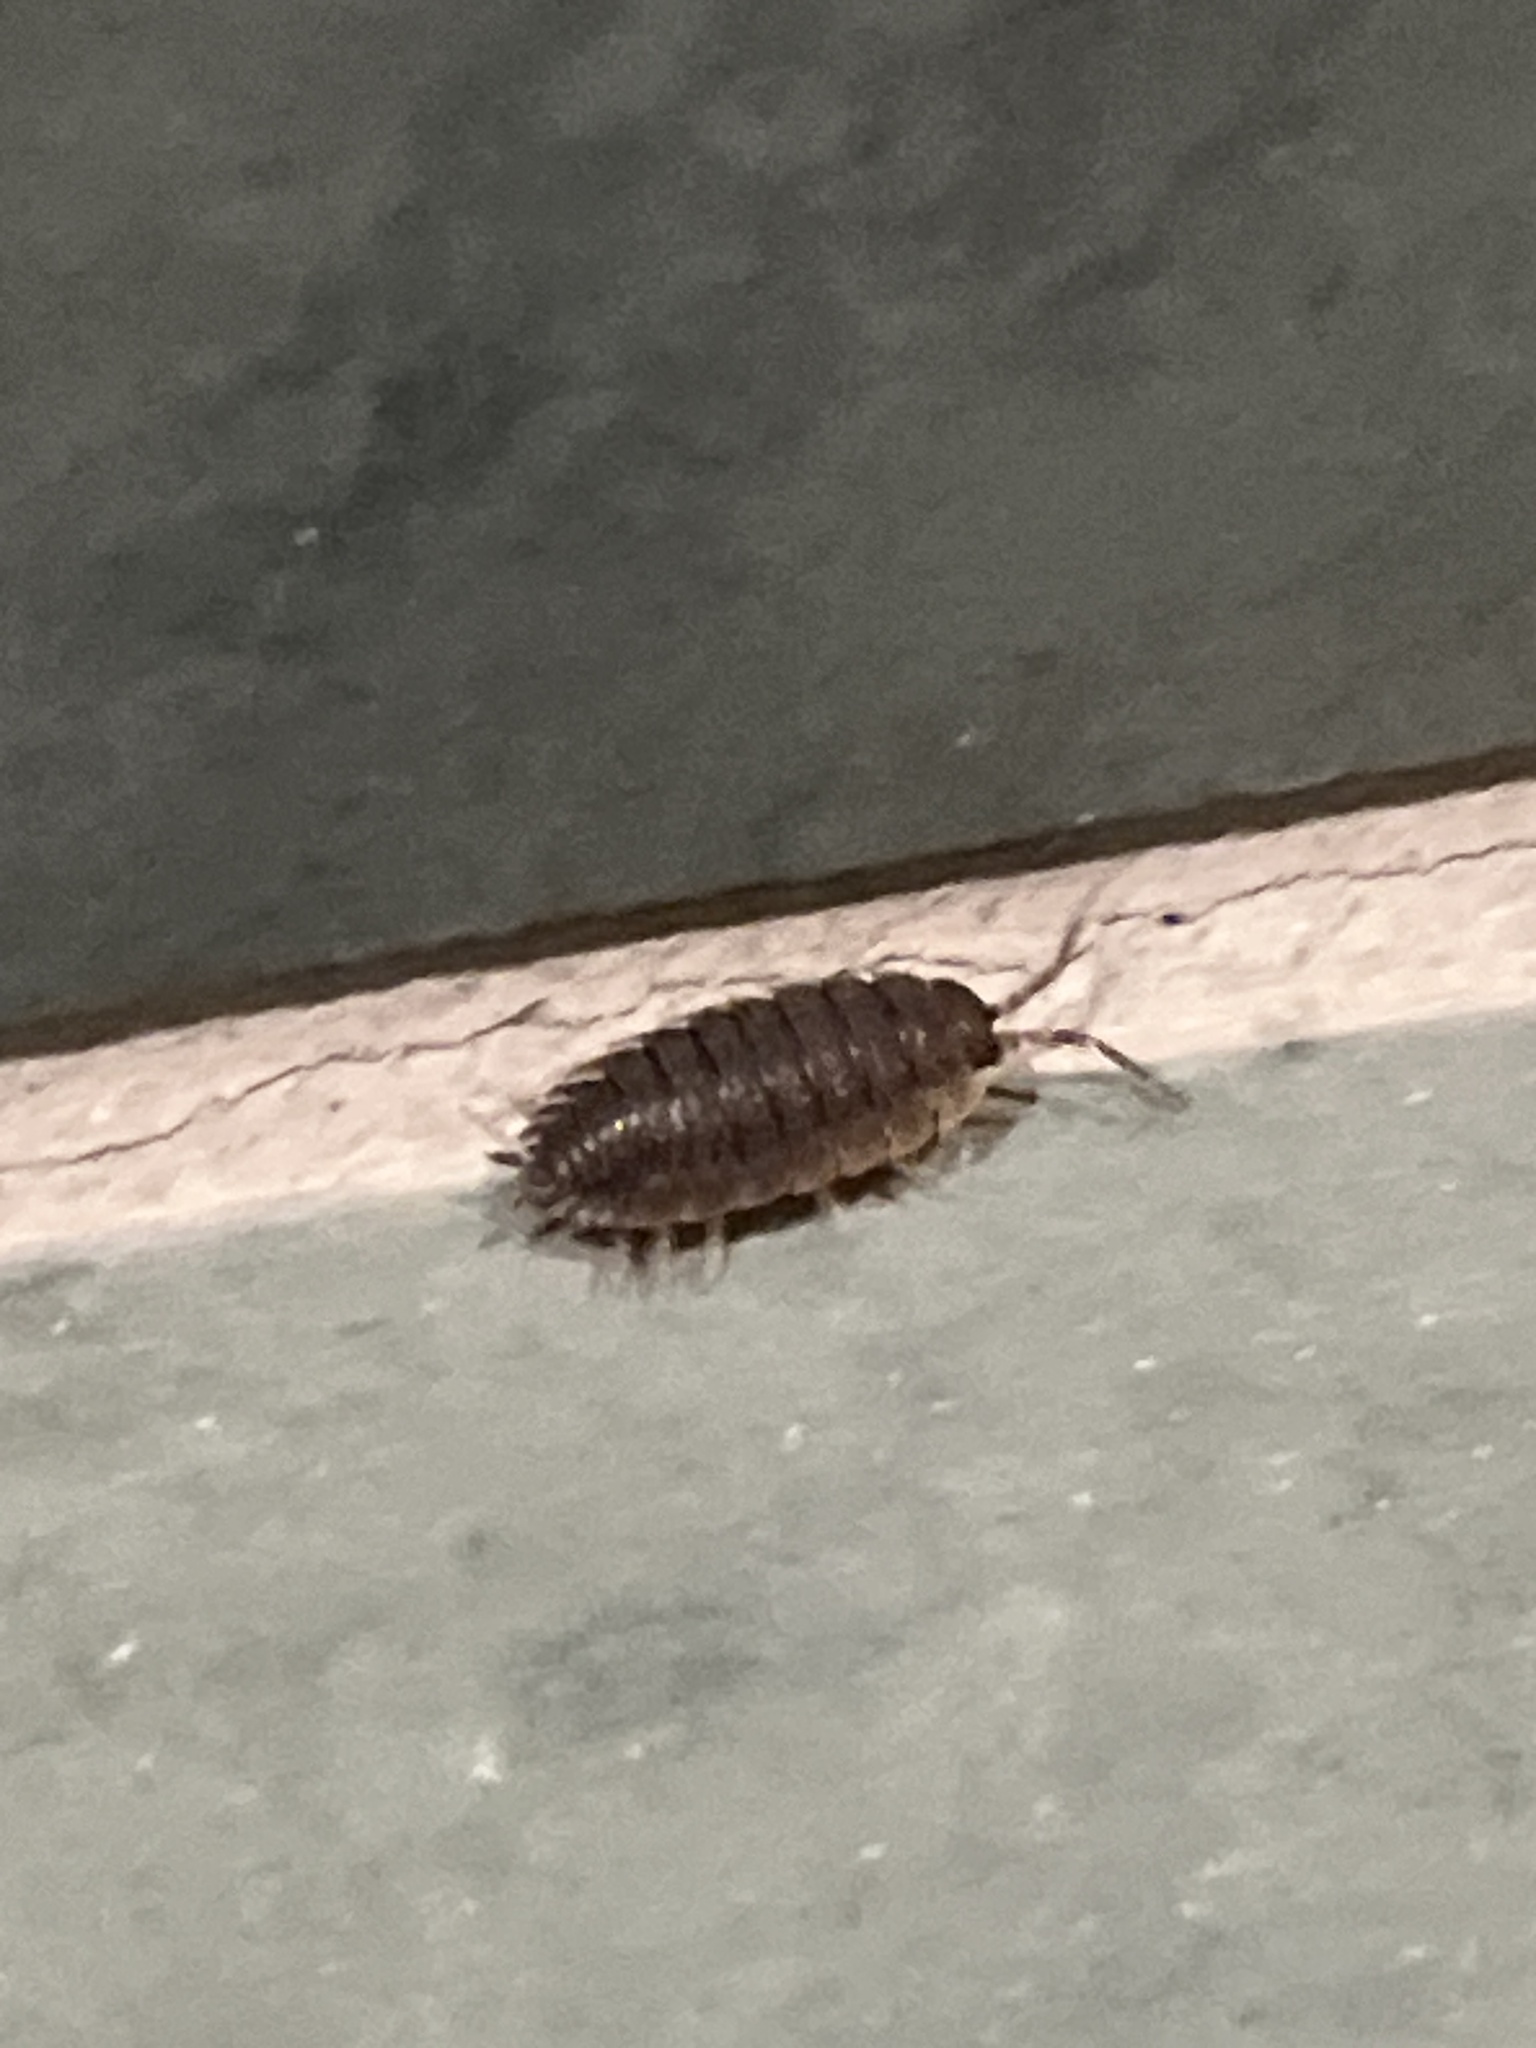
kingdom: Animalia
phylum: Arthropoda
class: Malacostraca
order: Isopoda
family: Porcellionidae
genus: Porcellio
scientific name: Porcellio scaber
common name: Common rough woodlouse
